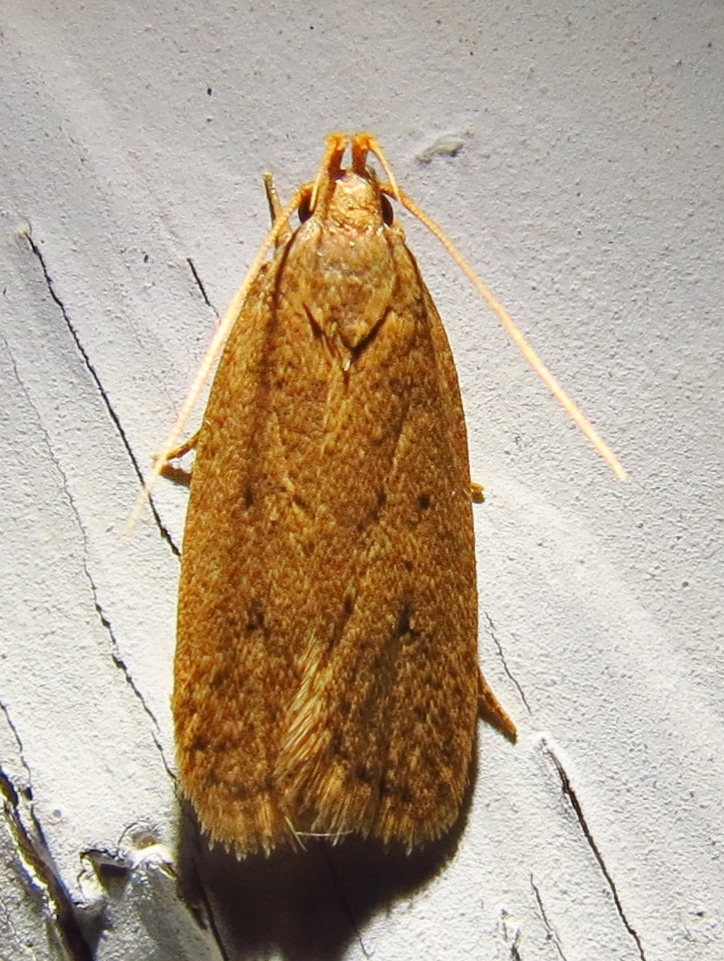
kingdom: Animalia
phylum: Arthropoda
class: Insecta
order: Lepidoptera
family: Autostichidae
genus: Autosticha
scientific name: Autosticha kyotensis
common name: Kyoto moth
